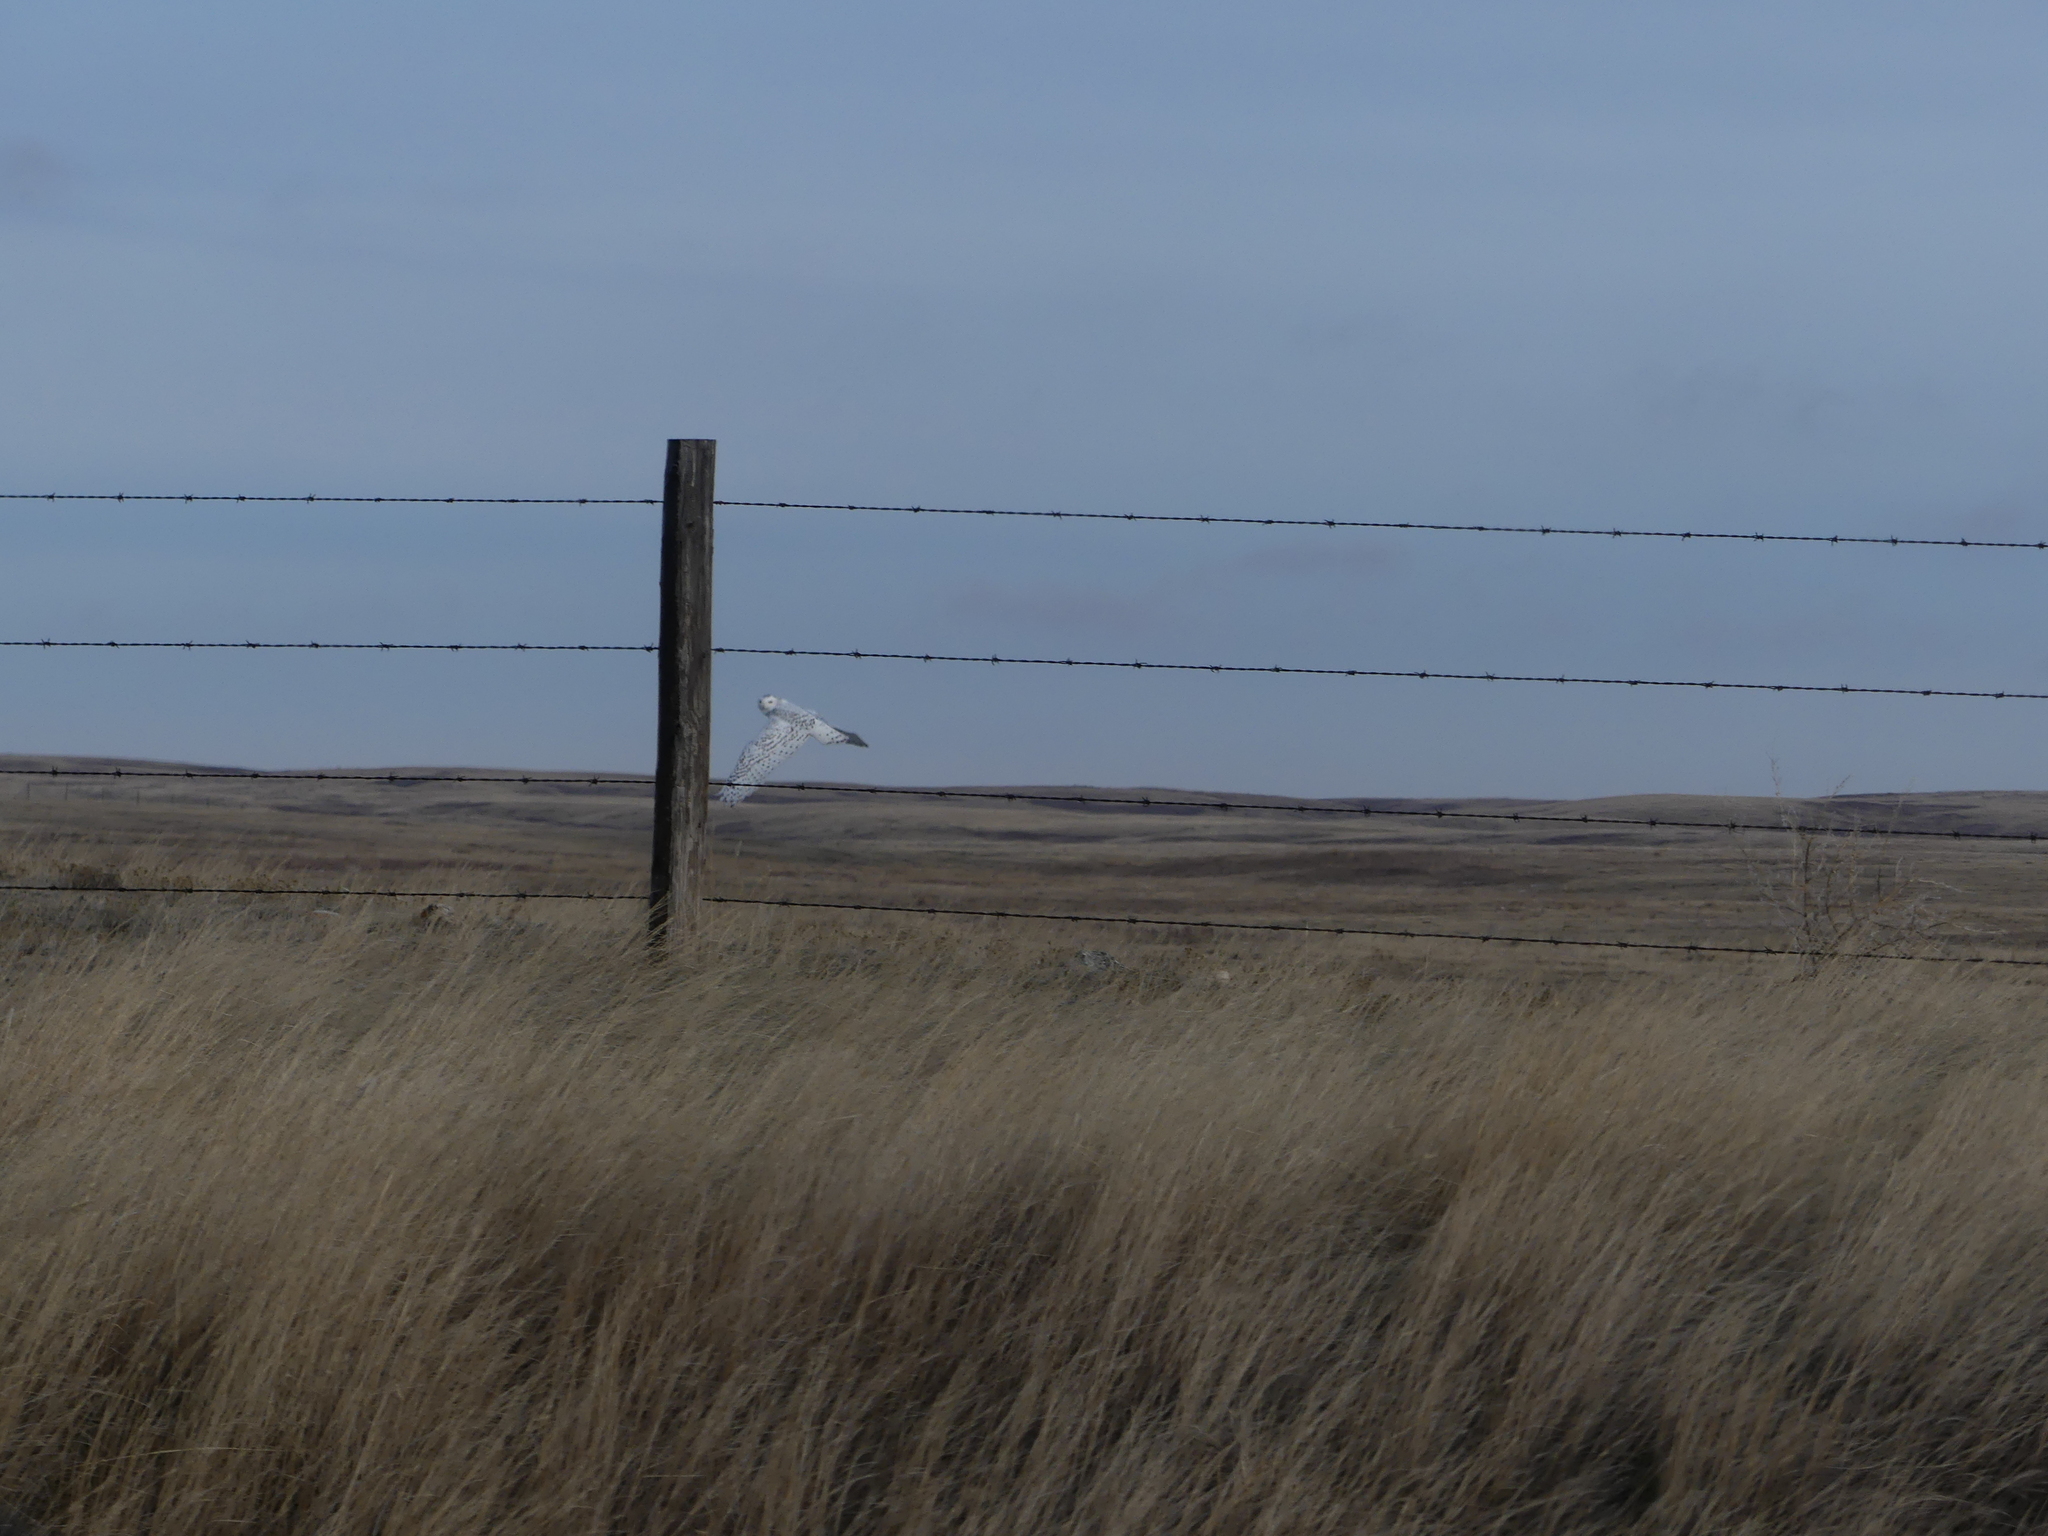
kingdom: Animalia
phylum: Chordata
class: Aves
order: Strigiformes
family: Strigidae
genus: Bubo
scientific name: Bubo scandiacus
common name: Snowy owl
